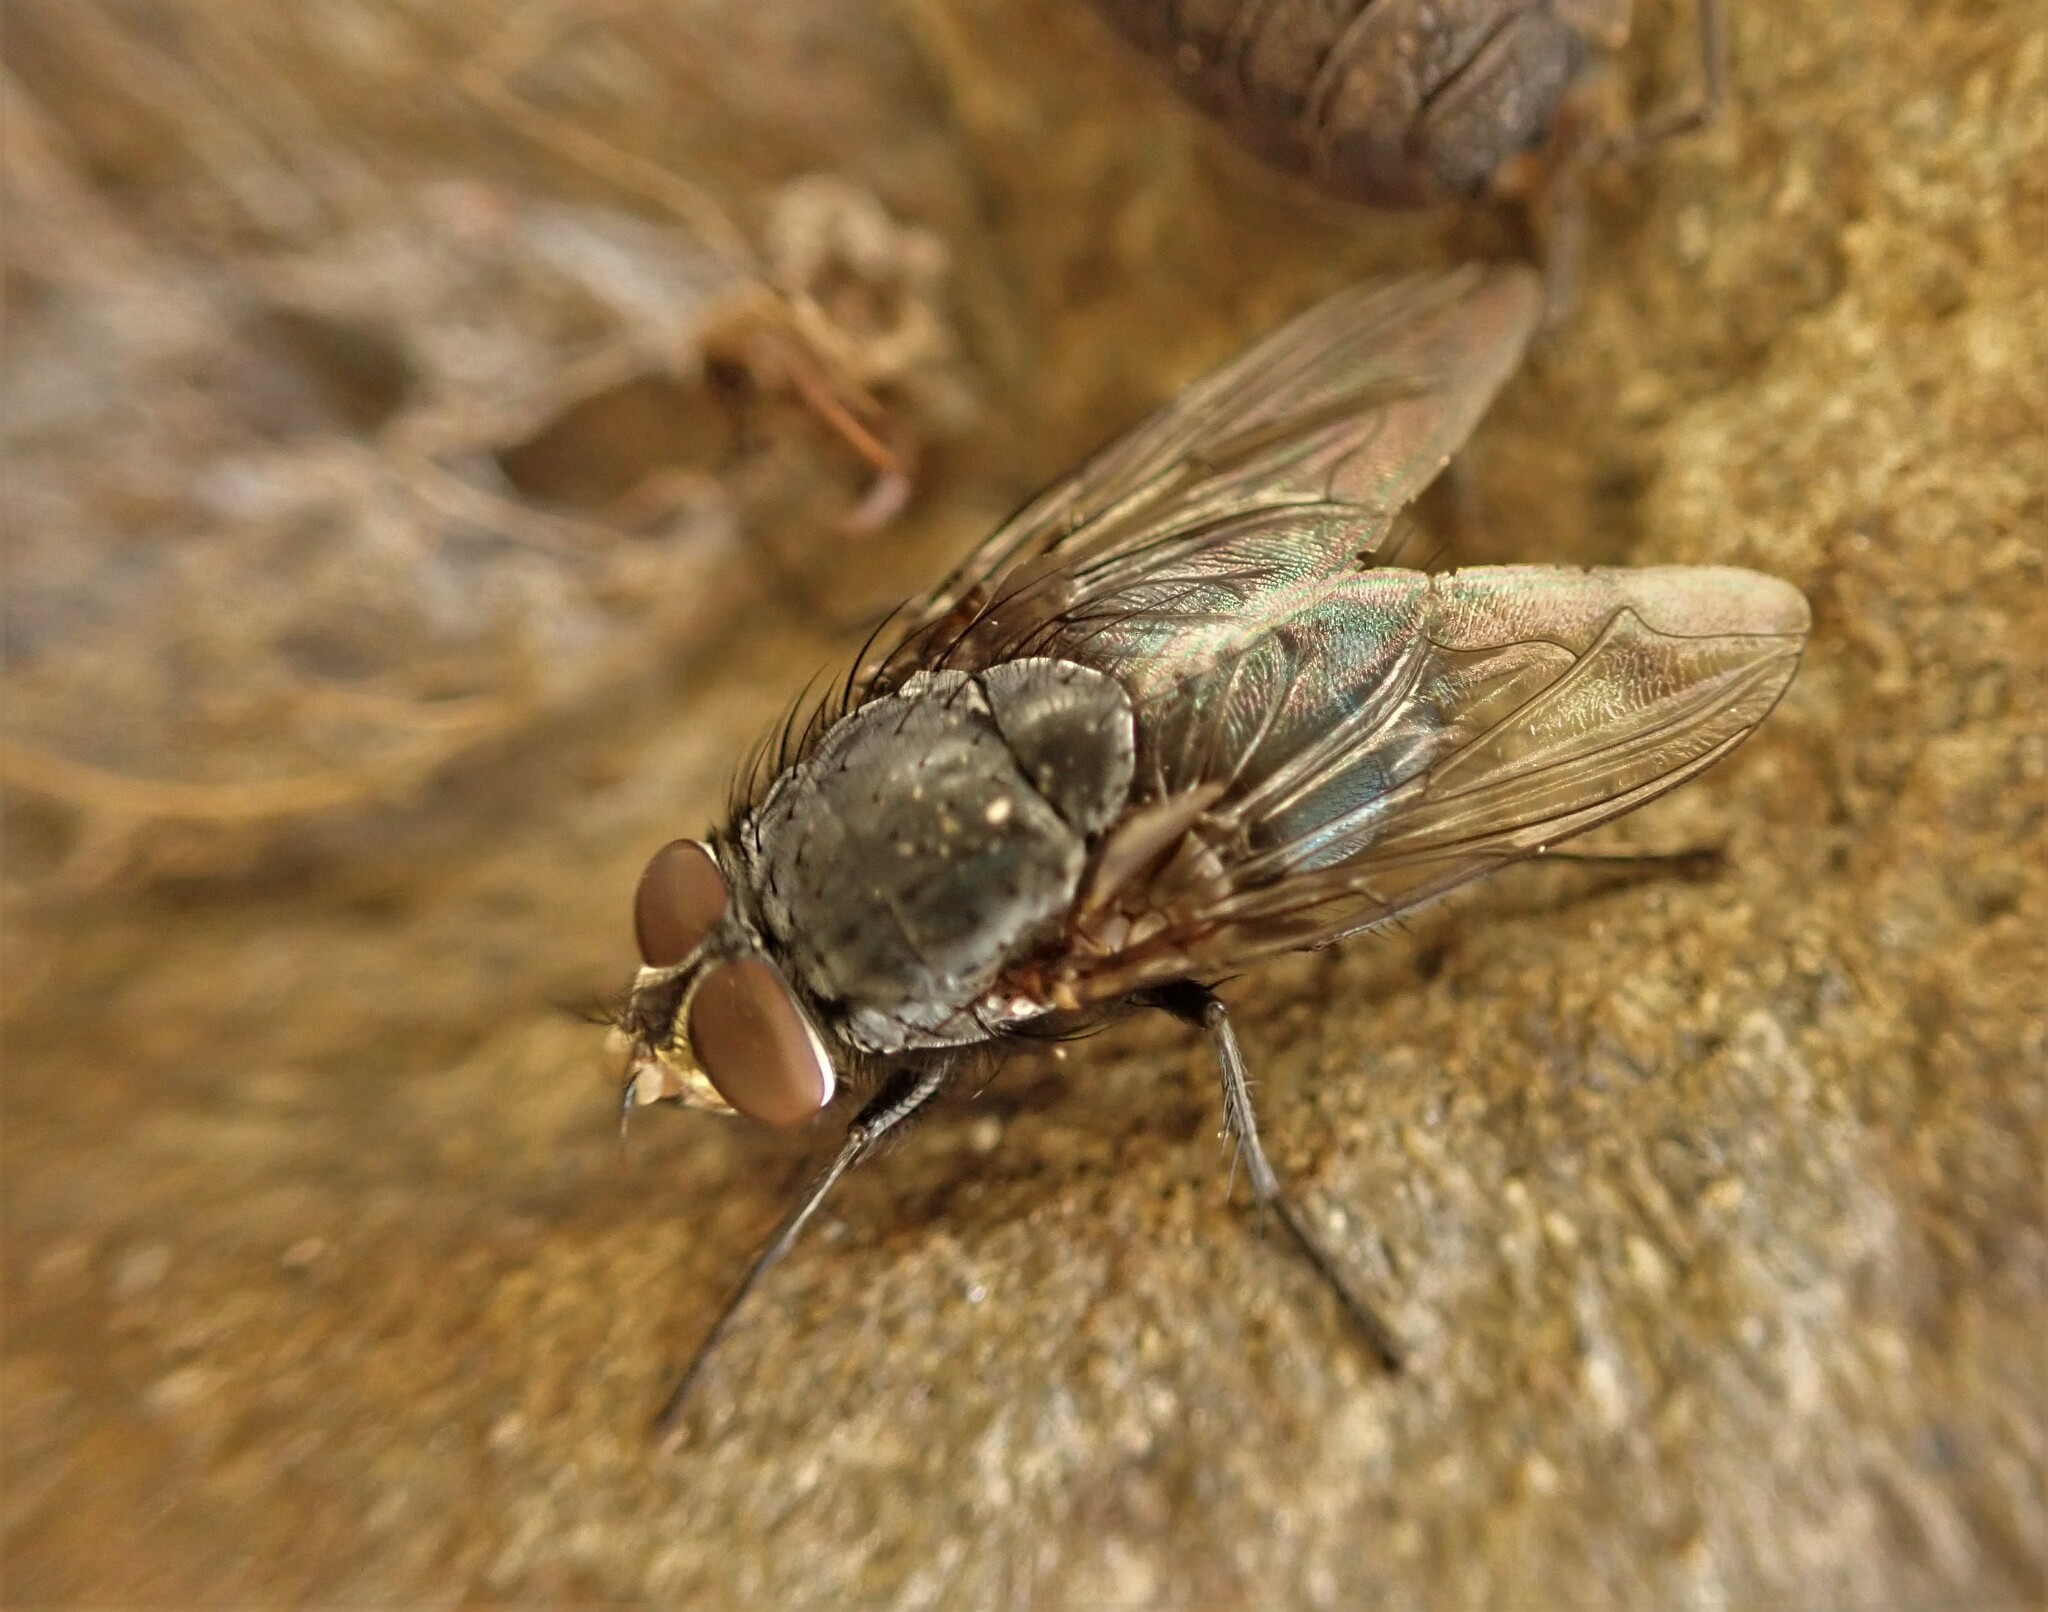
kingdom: Animalia
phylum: Arthropoda
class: Insecta
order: Diptera
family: Calliphoridae
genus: Calliphora
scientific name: Calliphora vicina
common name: Common blow flie
